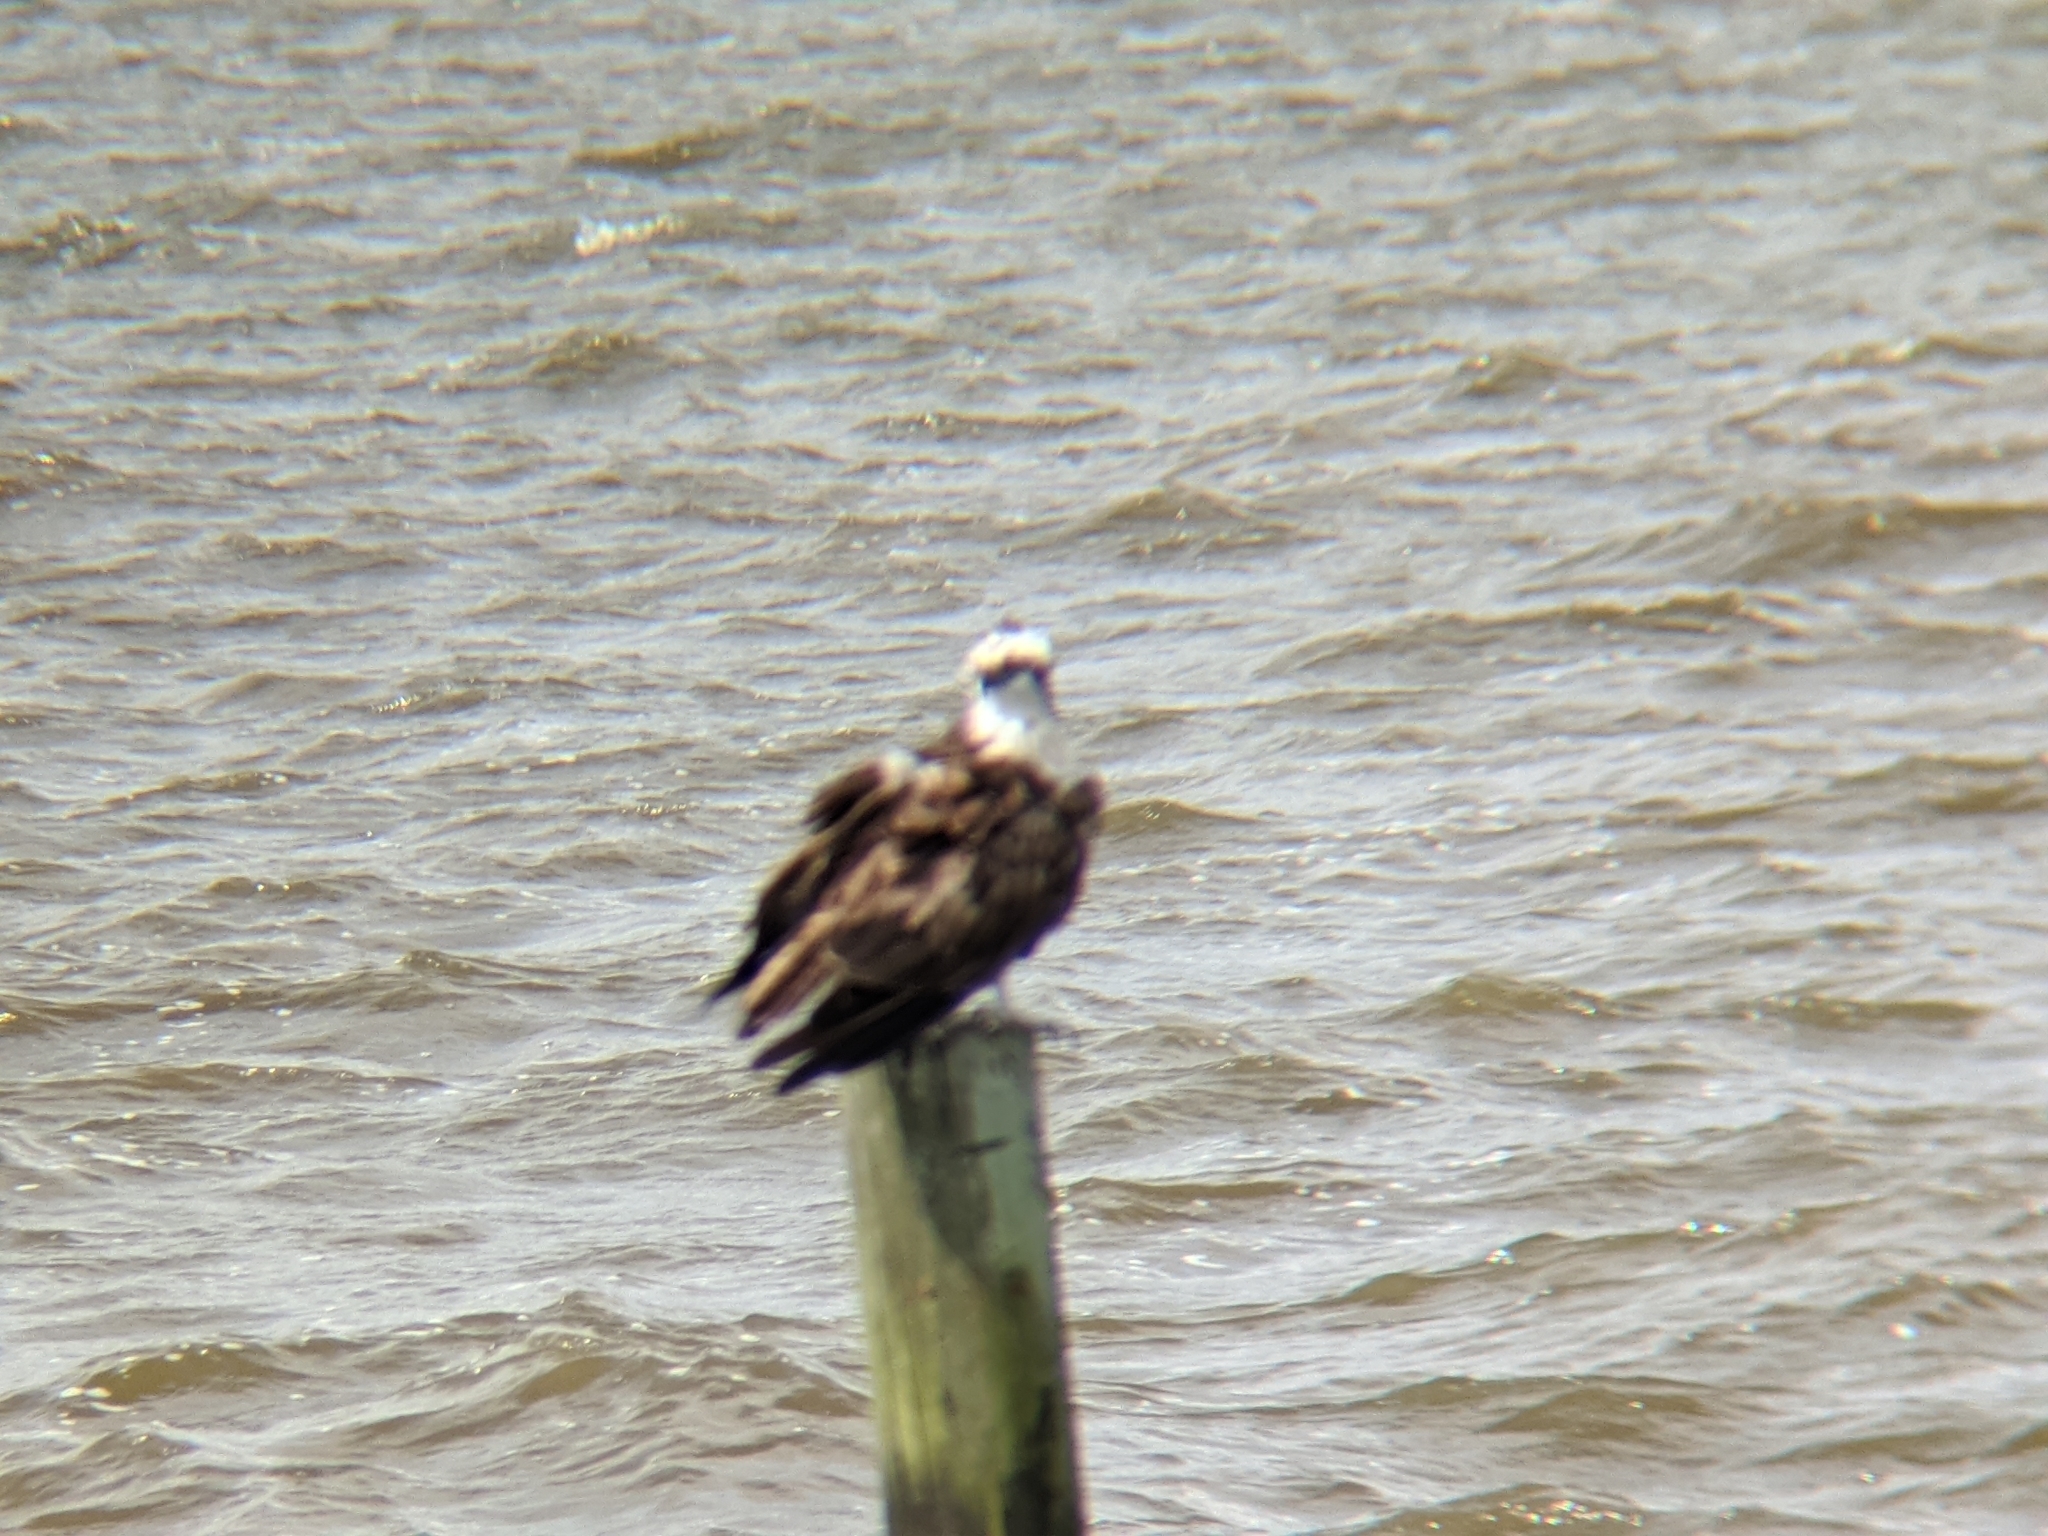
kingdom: Animalia
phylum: Chordata
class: Aves
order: Accipitriformes
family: Pandionidae
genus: Pandion
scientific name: Pandion haliaetus
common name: Osprey
